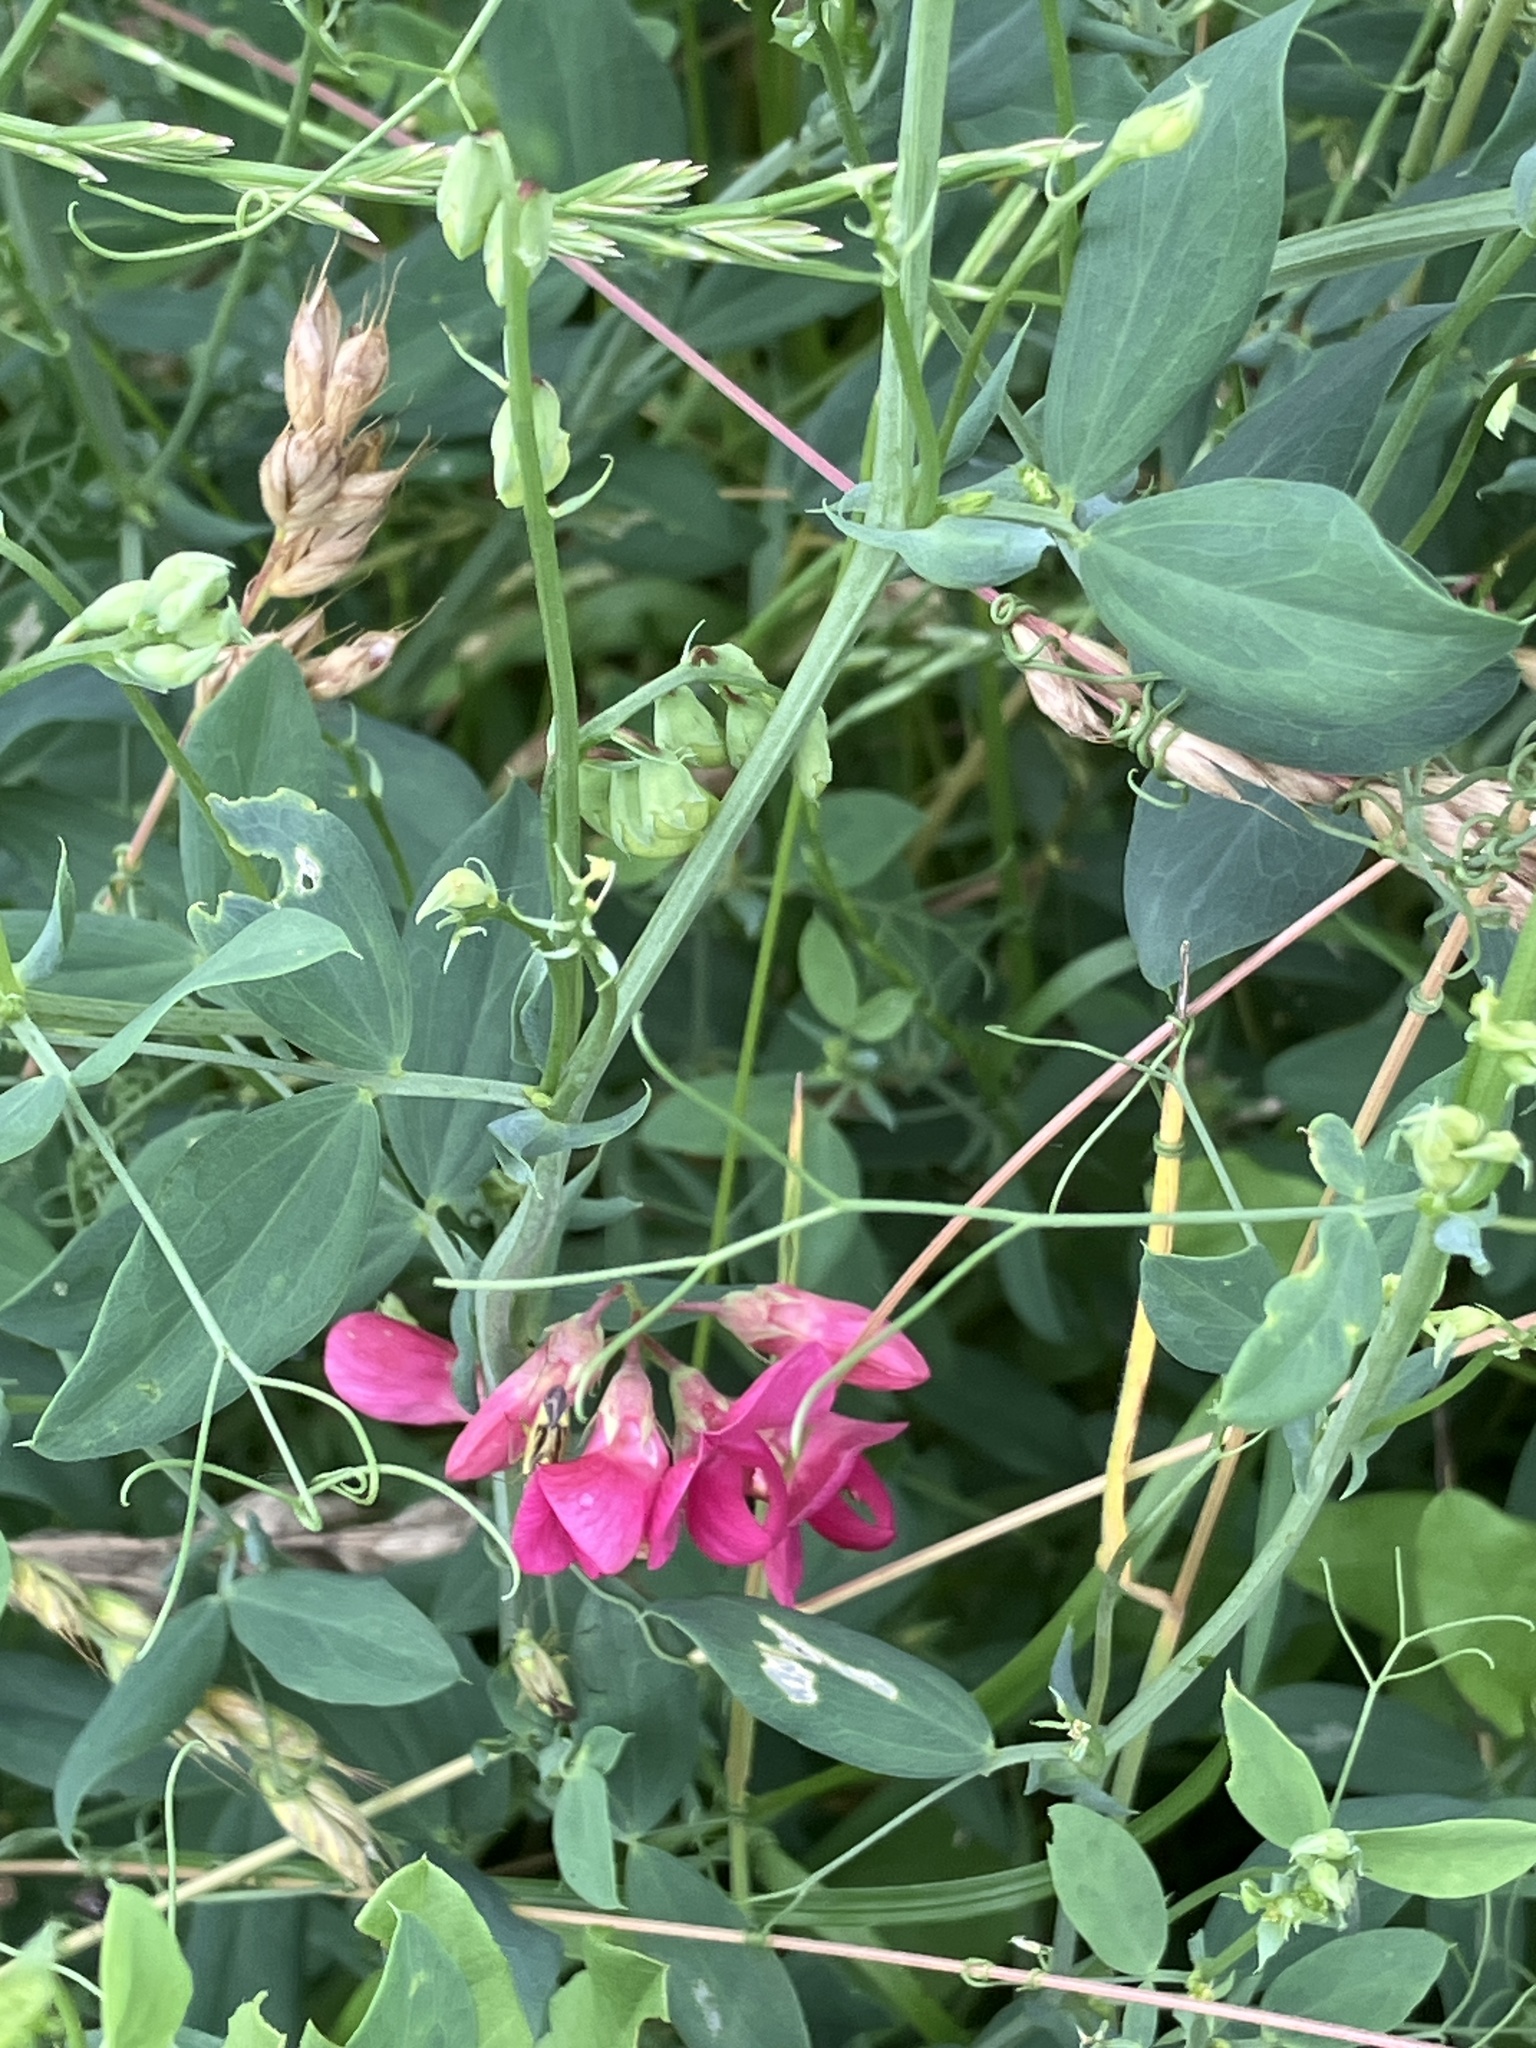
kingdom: Plantae
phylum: Tracheophyta
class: Magnoliopsida
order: Fabales
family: Fabaceae
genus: Lathyrus
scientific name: Lathyrus tuberosus
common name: Tuberous pea
